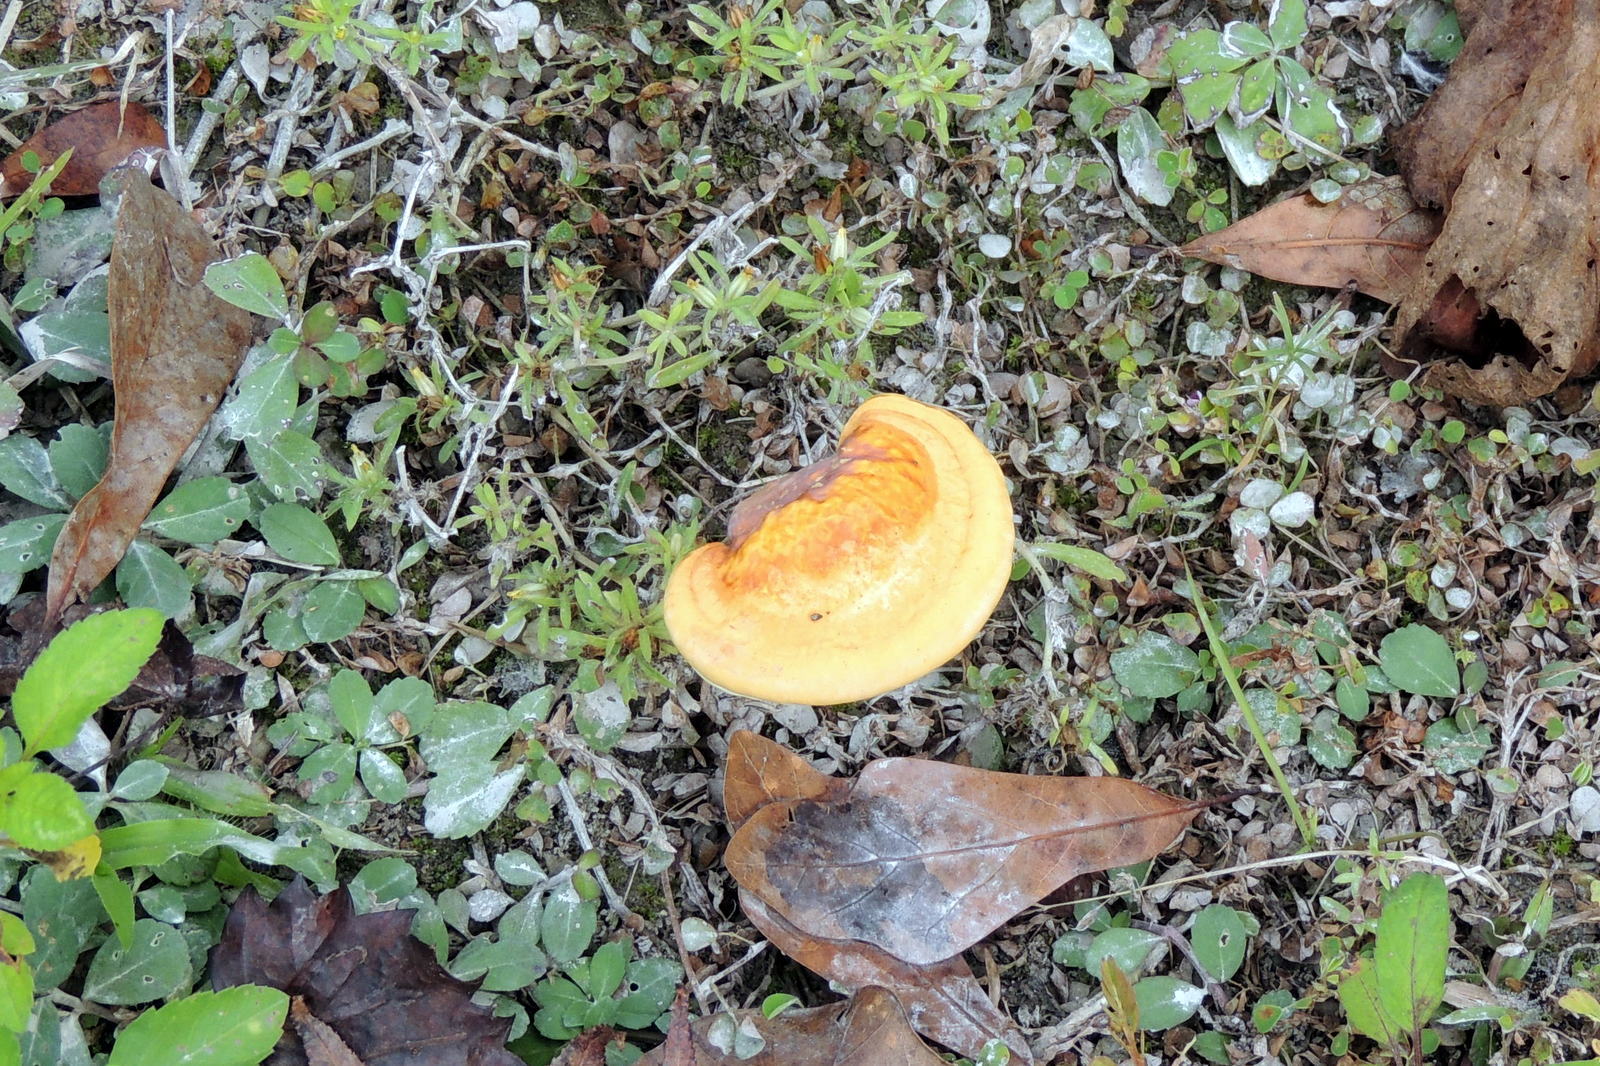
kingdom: Fungi
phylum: Basidiomycota
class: Agaricomycetes
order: Polyporales
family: Polyporaceae
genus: Ganoderma
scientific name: Ganoderma curtisii
